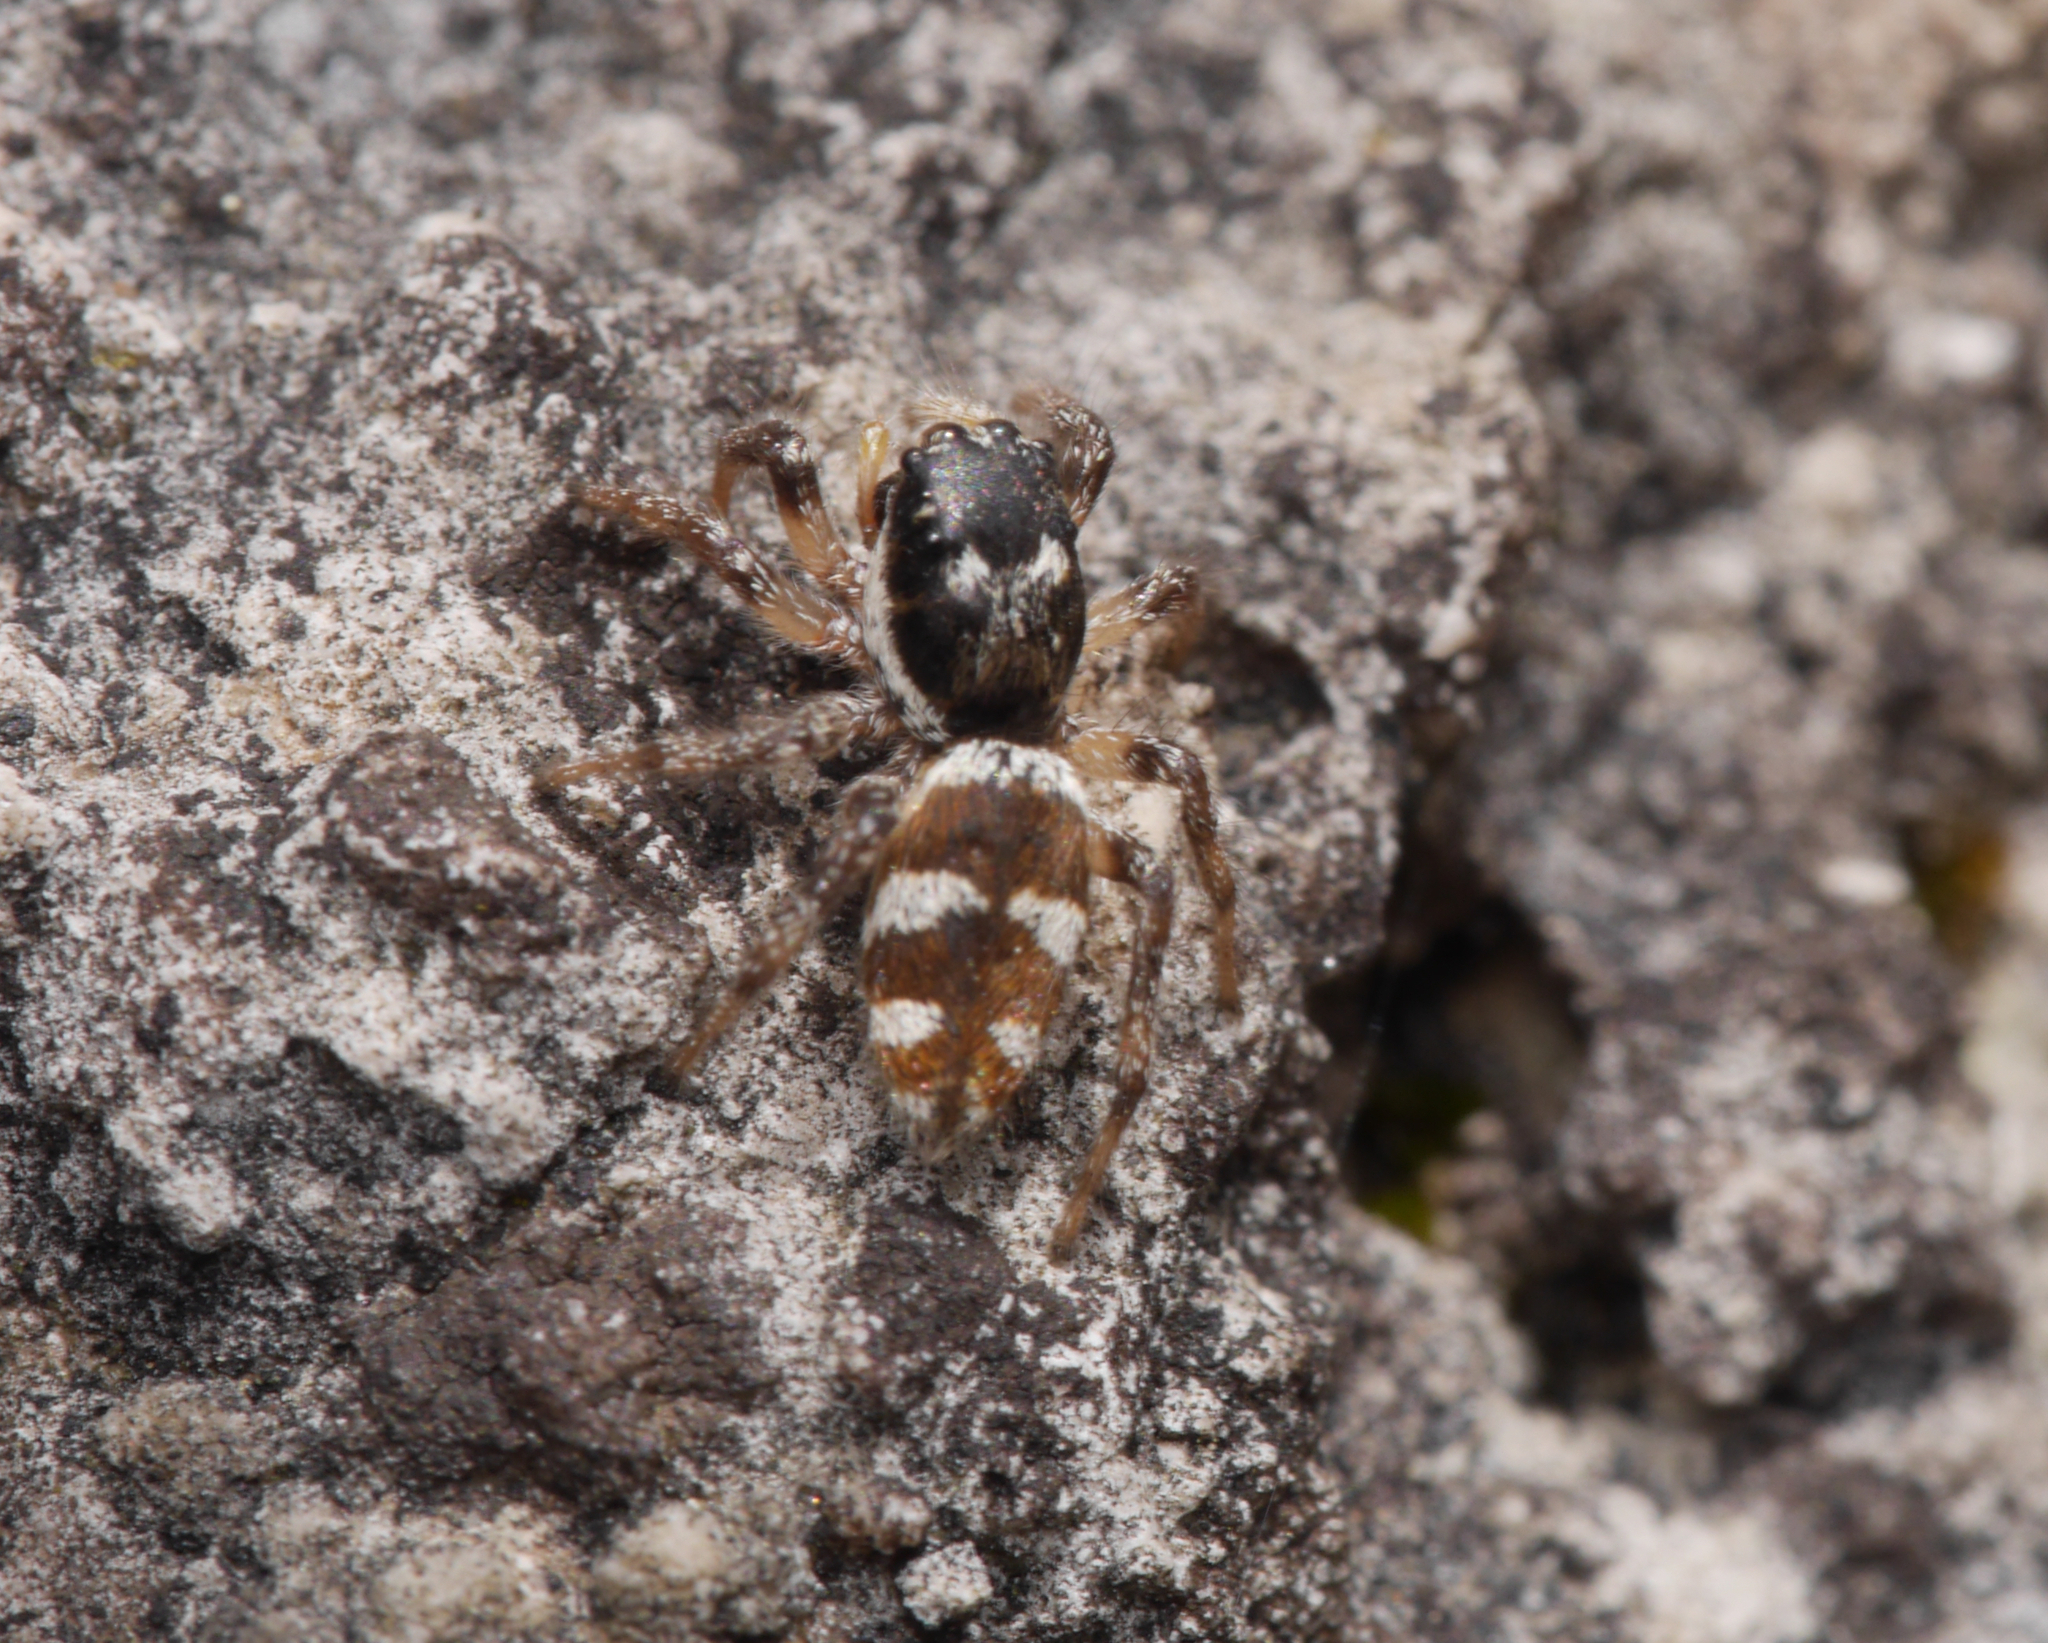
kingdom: Animalia
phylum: Arthropoda
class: Arachnida
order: Araneae
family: Salticidae
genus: Salticus
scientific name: Salticus scenicus
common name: Zebra jumper
